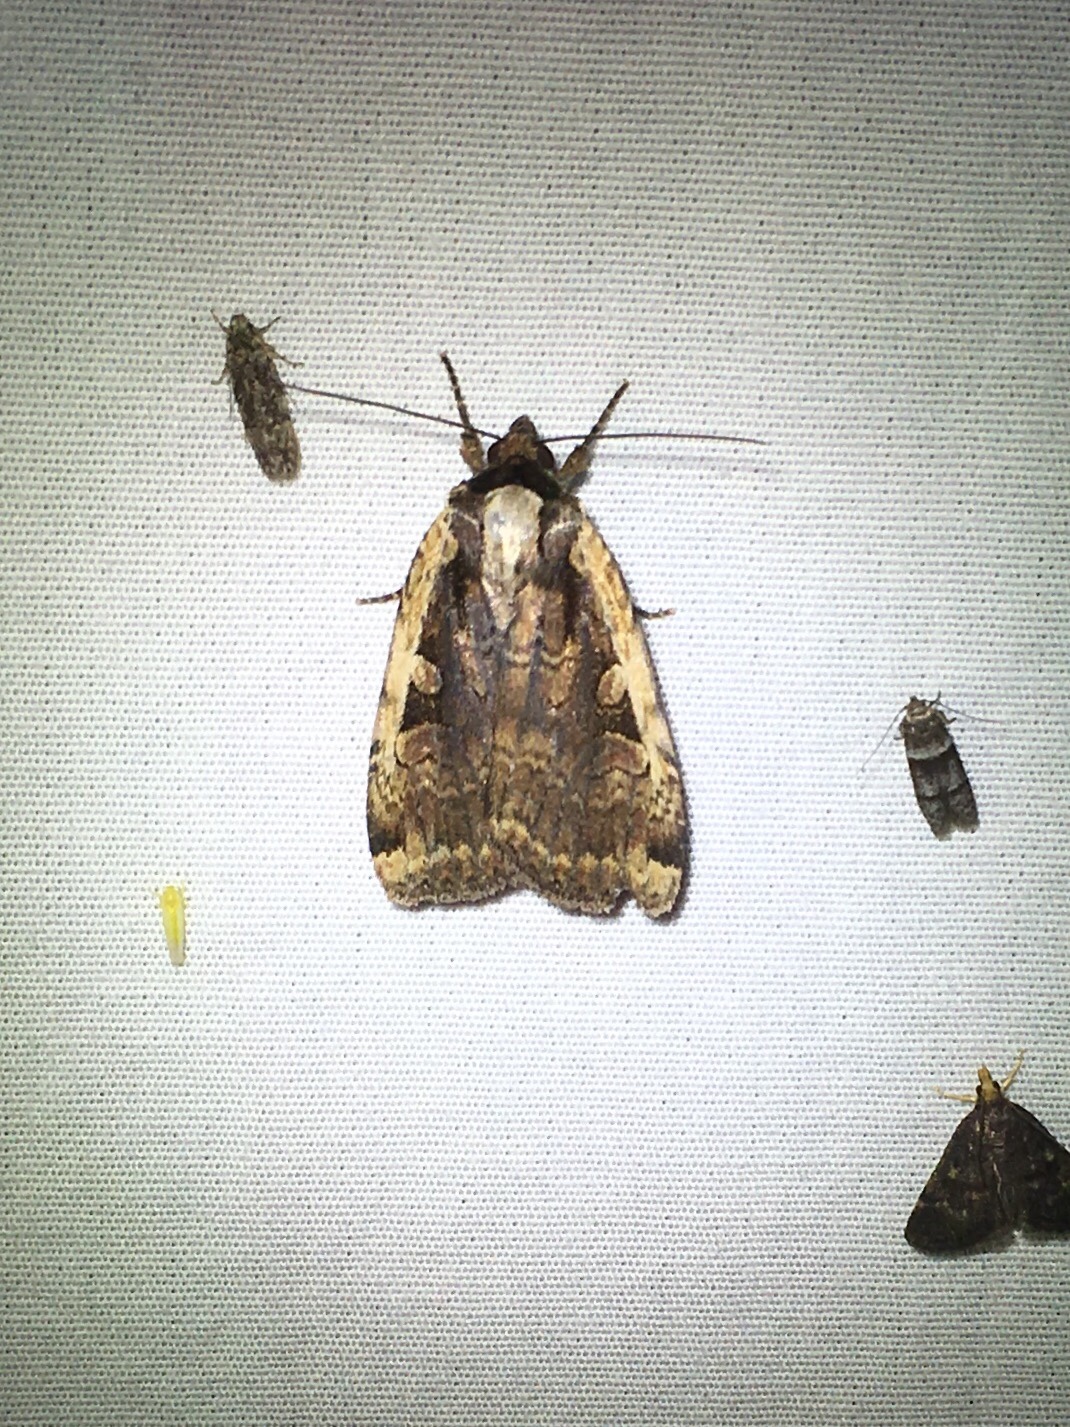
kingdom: Animalia
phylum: Arthropoda
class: Insecta
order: Lepidoptera
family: Noctuidae
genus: Eueretagrotis
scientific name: Eueretagrotis sigmoides
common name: Sigmoid dart
